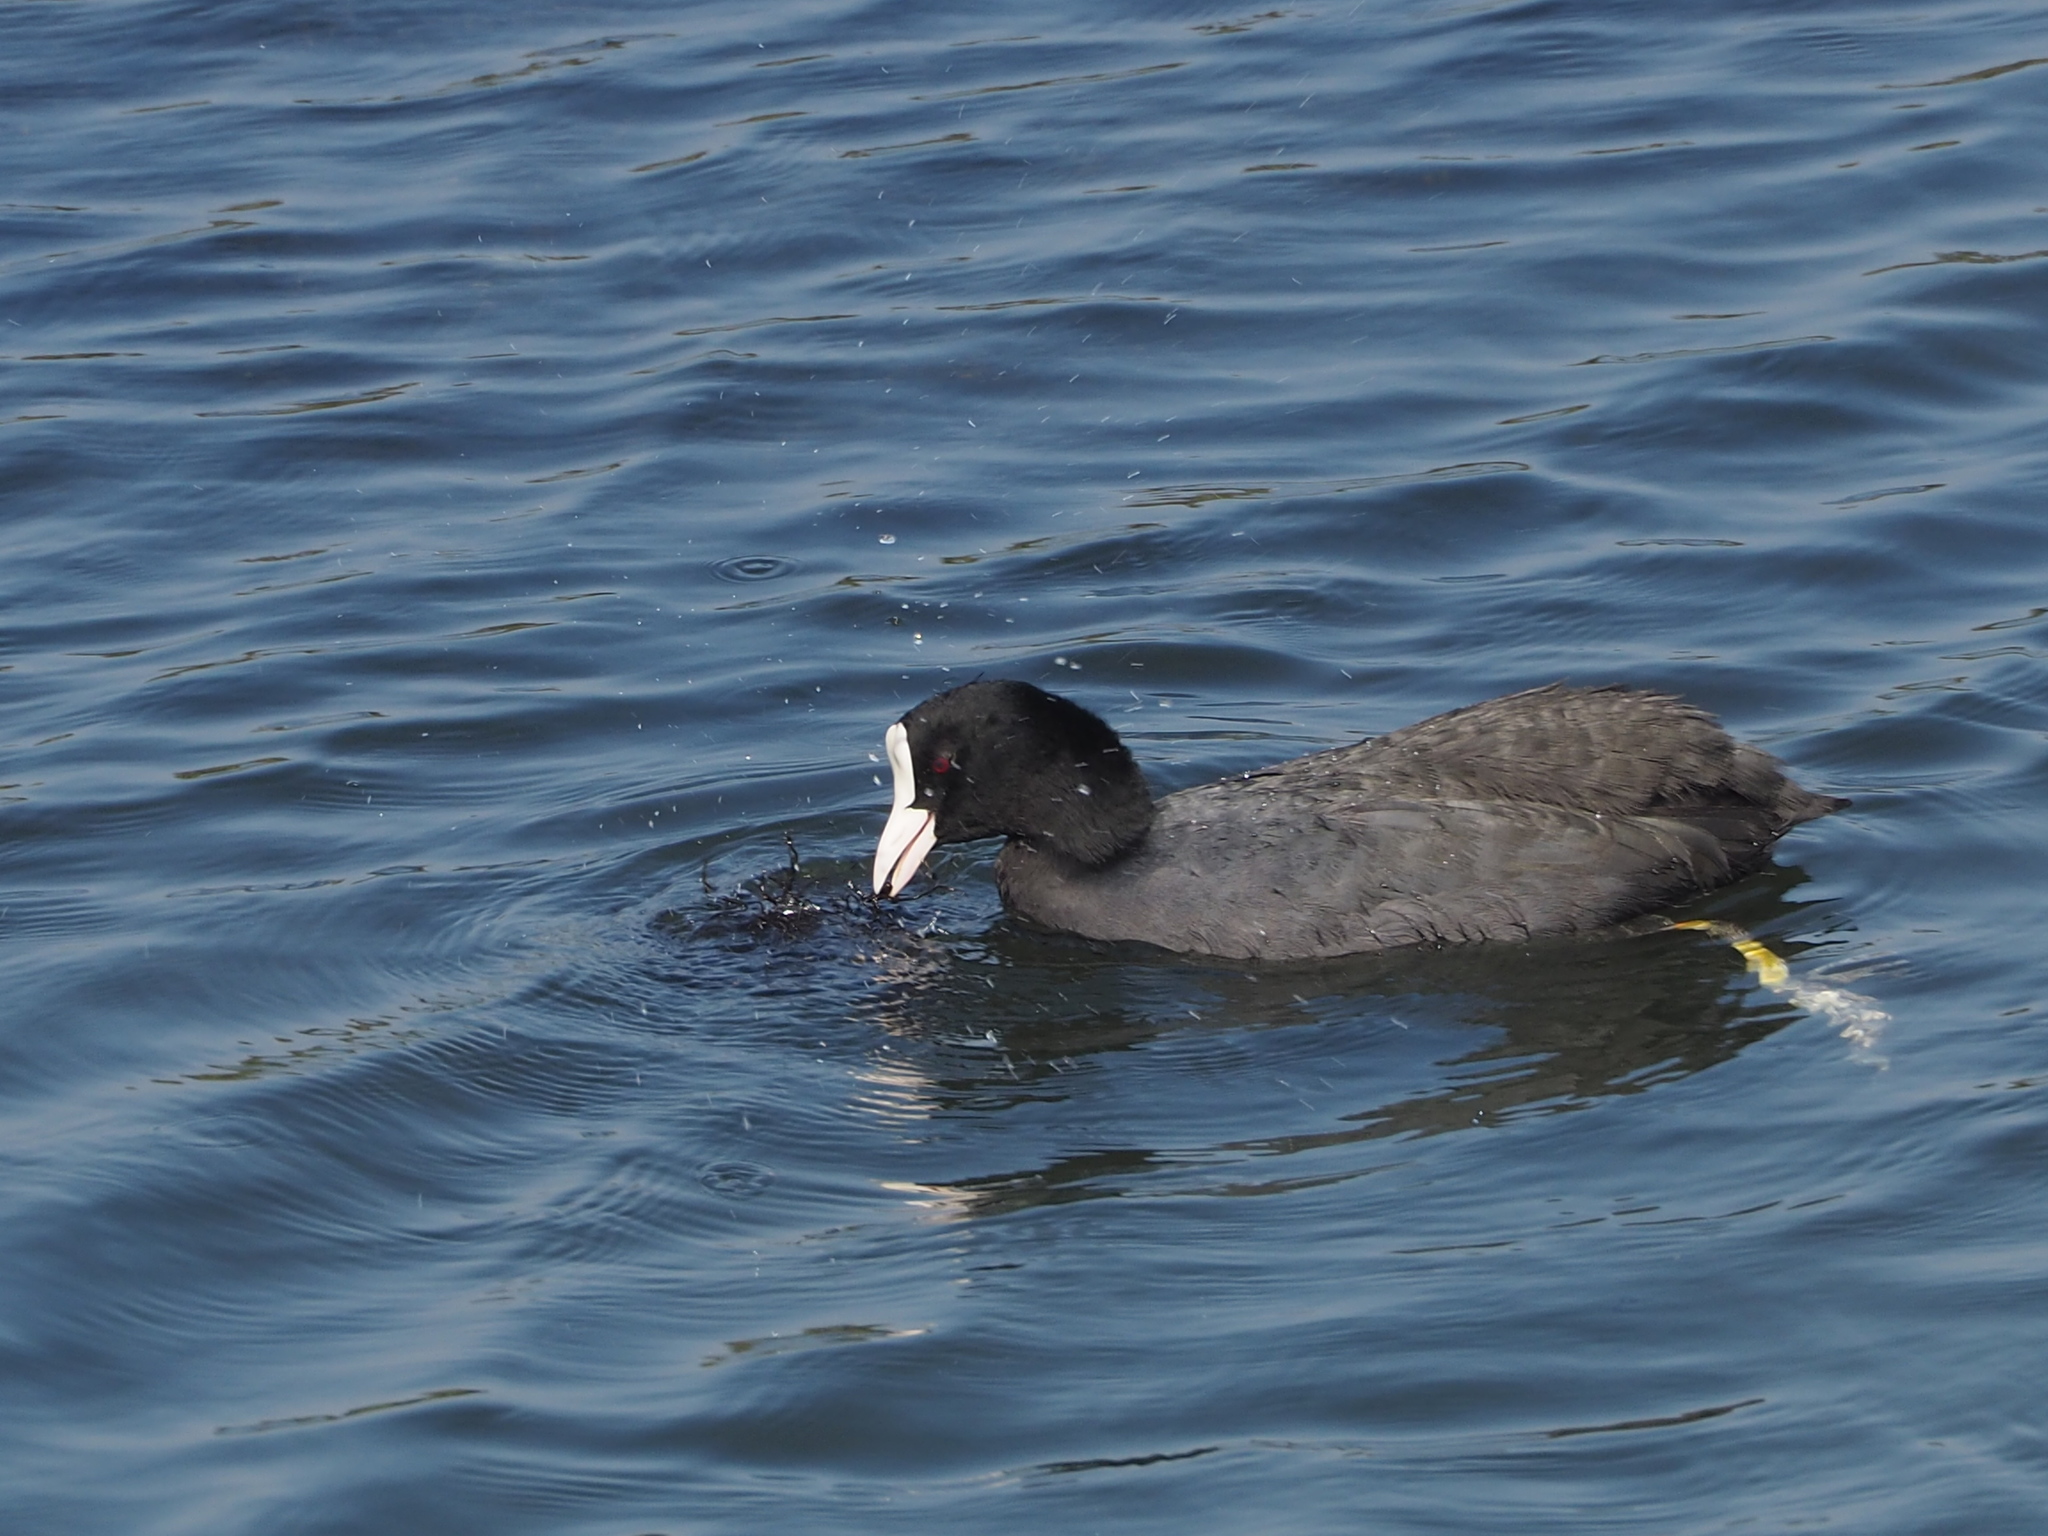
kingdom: Animalia
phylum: Chordata
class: Aves
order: Gruiformes
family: Rallidae
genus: Fulica
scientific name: Fulica atra
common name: Eurasian coot
